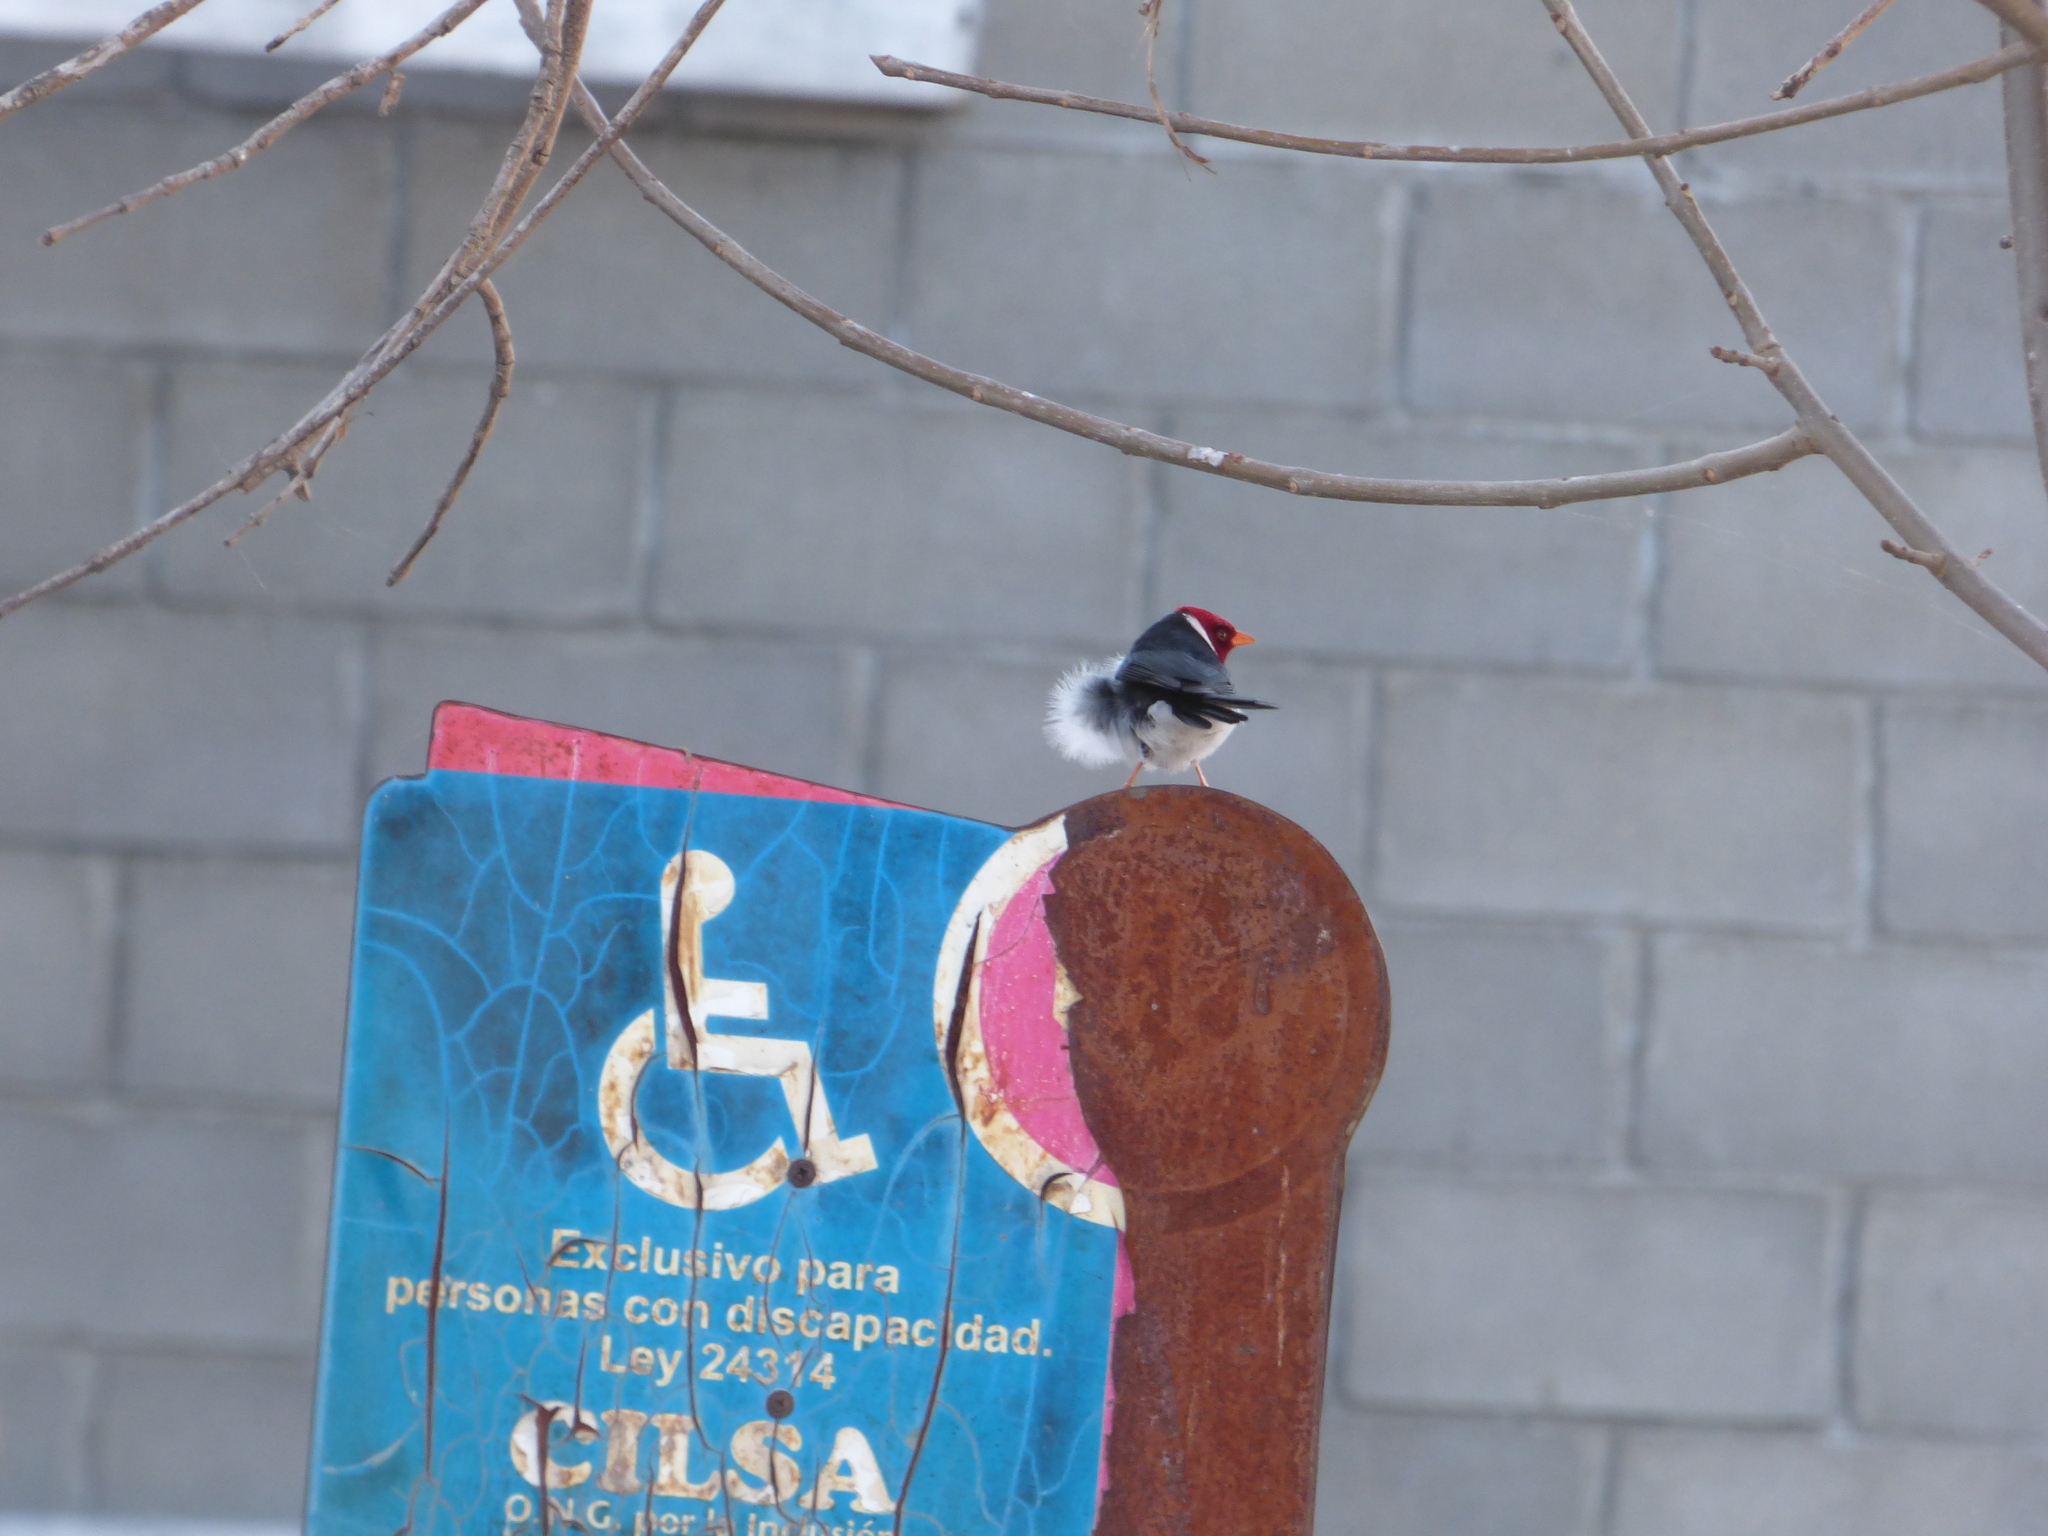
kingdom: Animalia
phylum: Chordata
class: Aves
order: Passeriformes
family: Thraupidae
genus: Paroaria
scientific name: Paroaria capitata
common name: Yellow-billed cardinal
